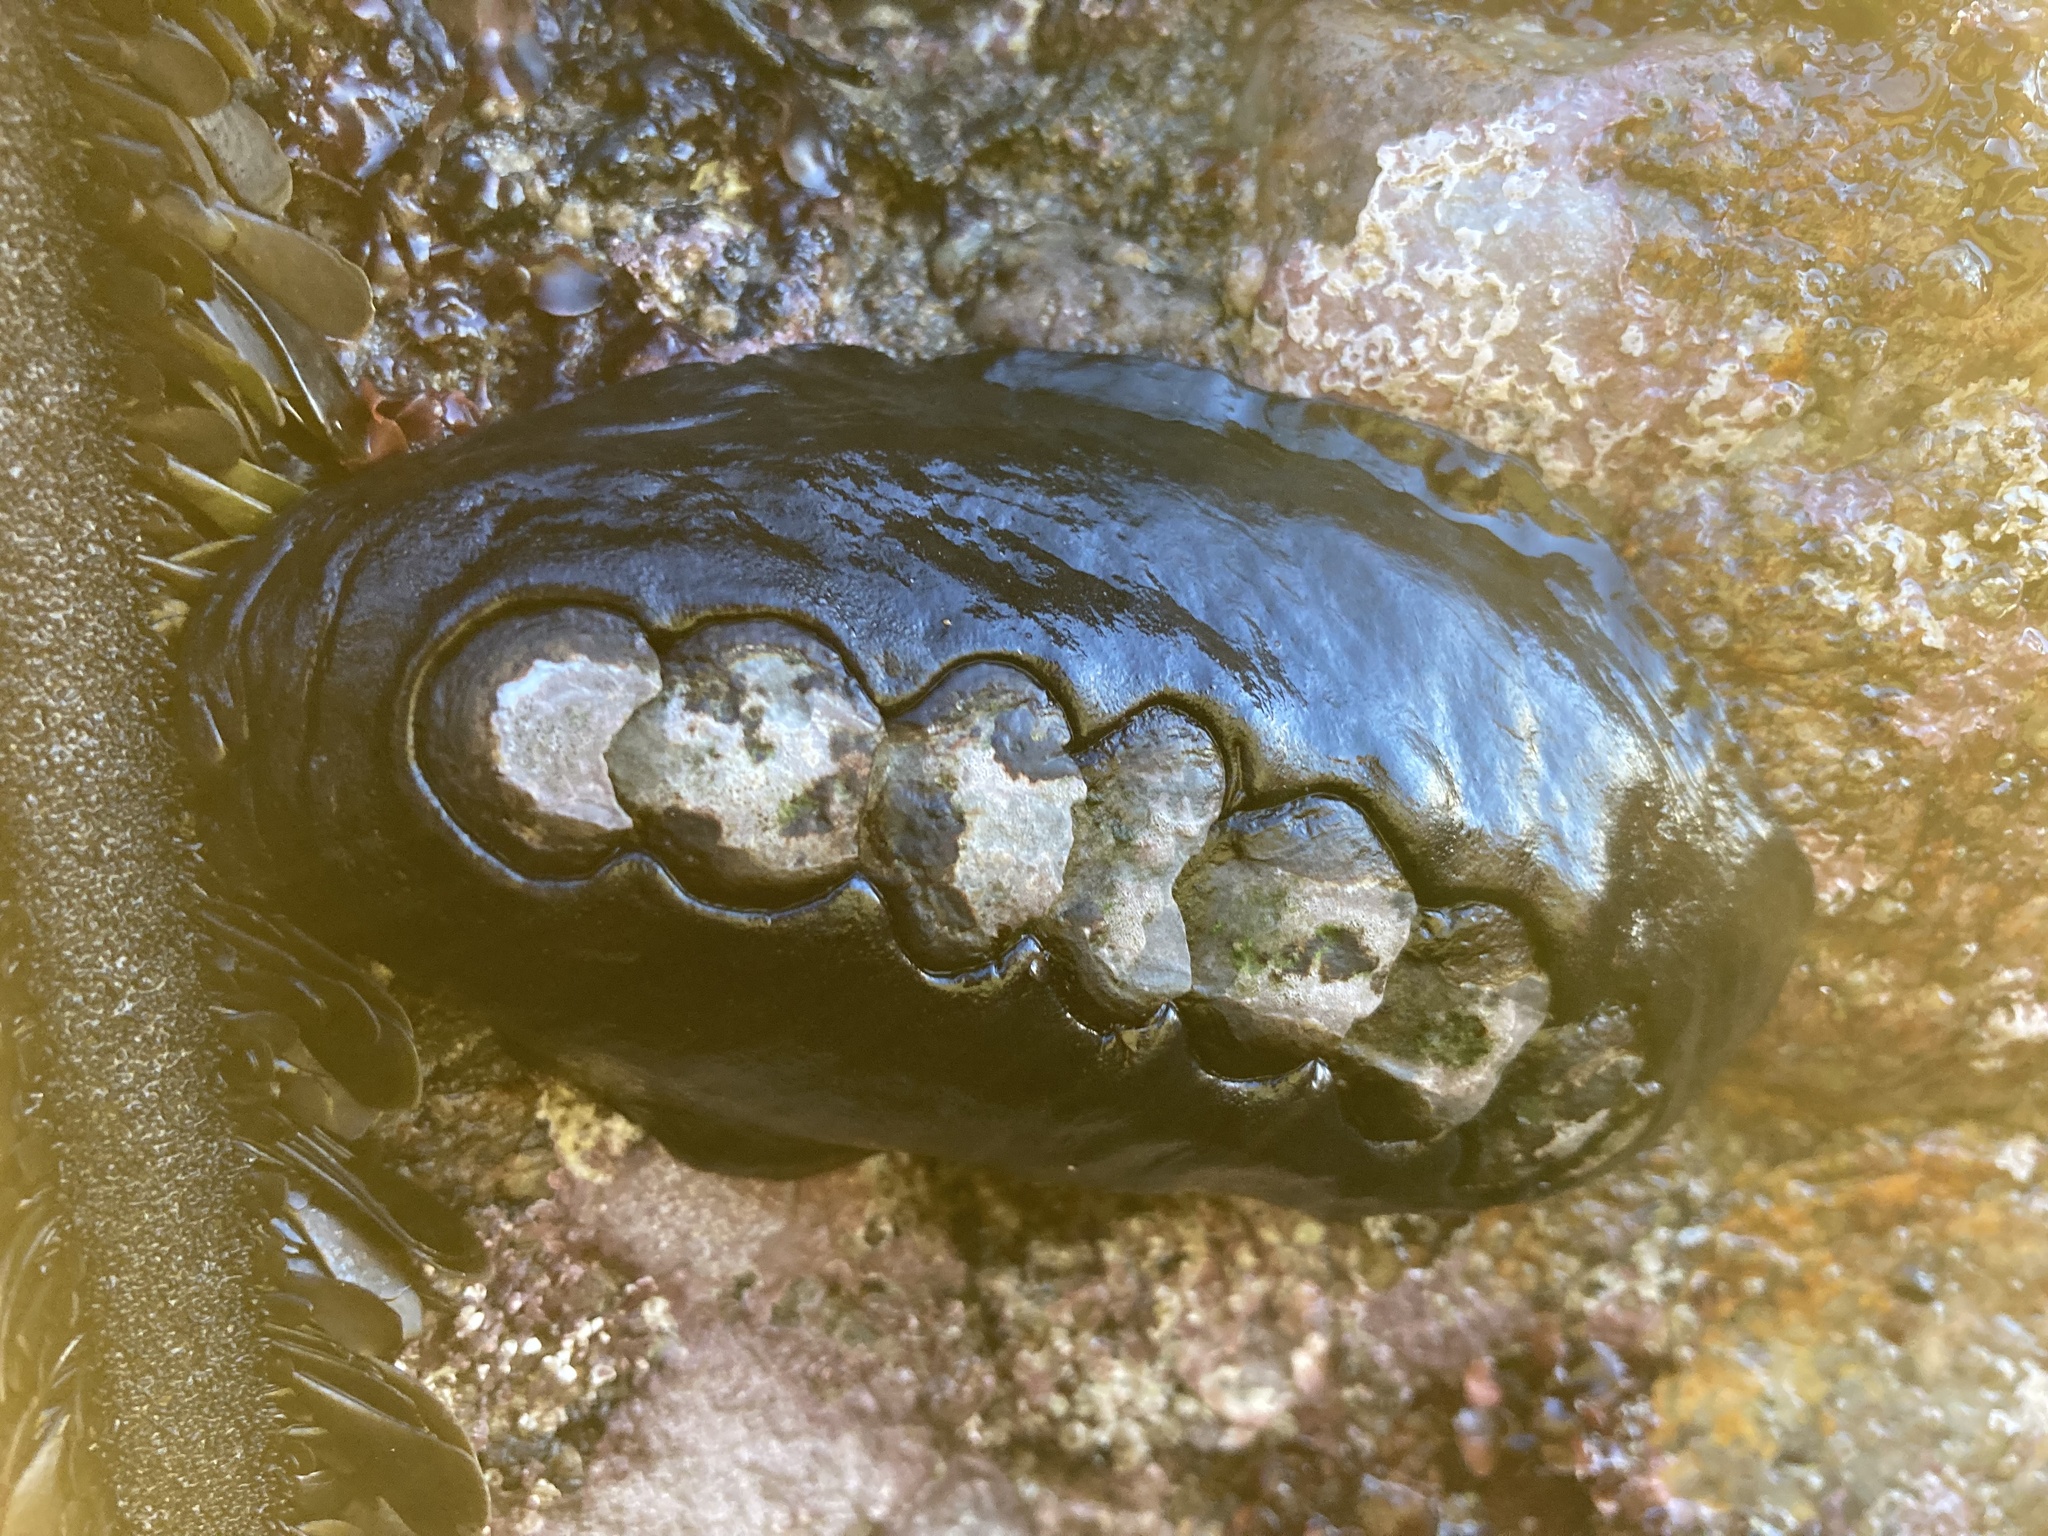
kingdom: Animalia
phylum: Mollusca
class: Polyplacophora
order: Chitonida
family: Mopaliidae
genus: Katharina
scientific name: Katharina tunicata
